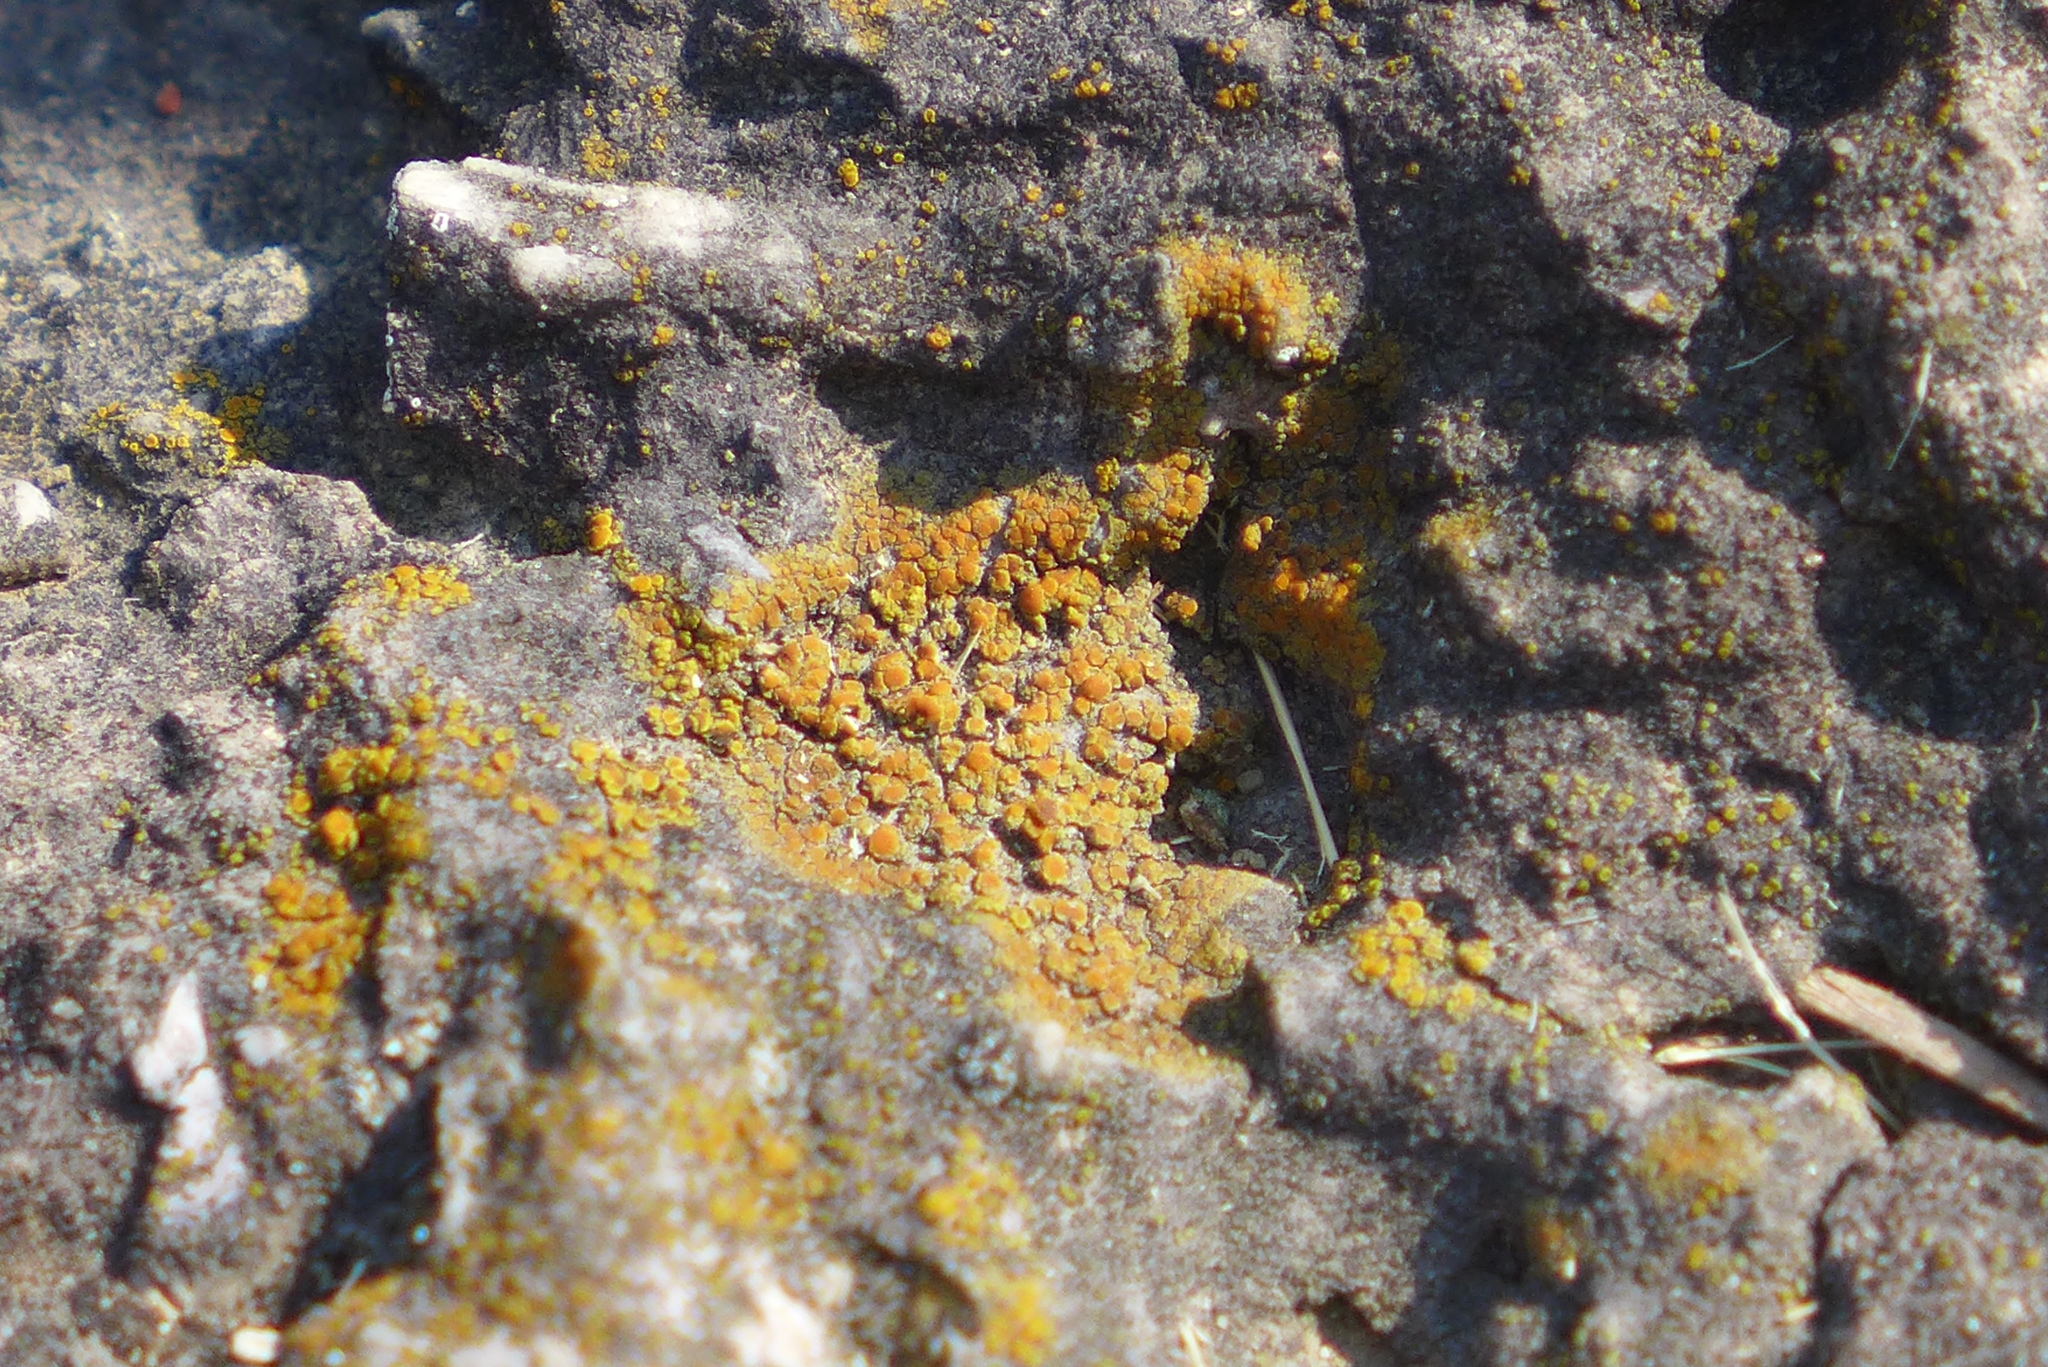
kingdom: Fungi
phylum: Ascomycota
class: Lecanoromycetes
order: Teloschistales
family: Teloschistaceae
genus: Squamulea
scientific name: Squamulea subsoluta
